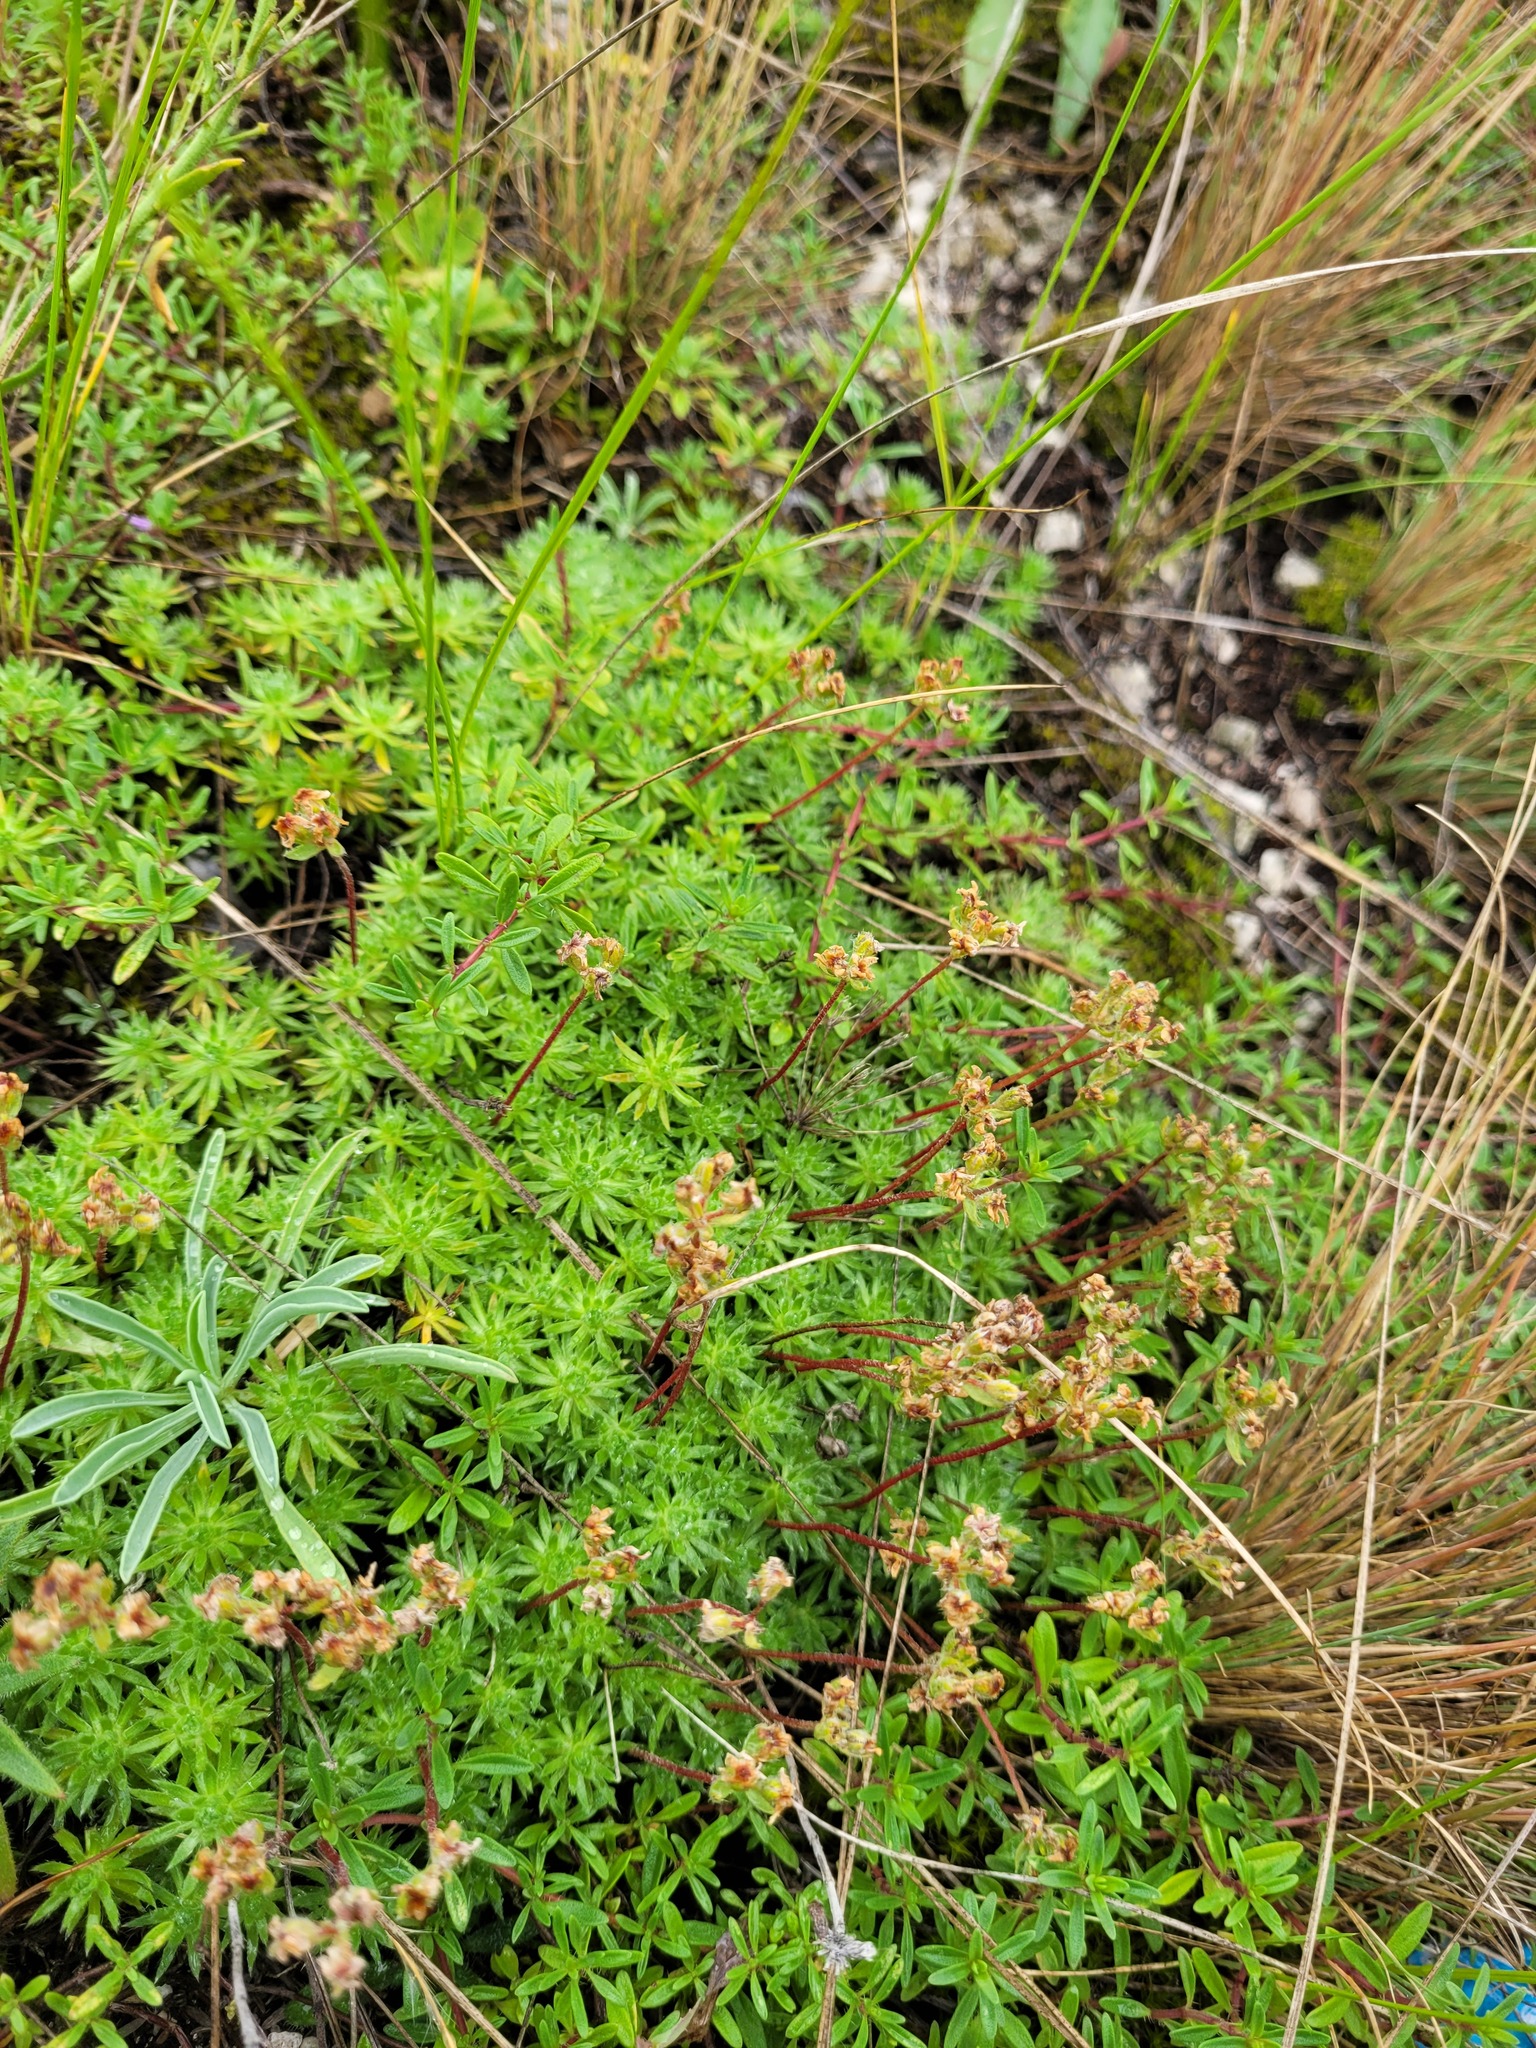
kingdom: Plantae
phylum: Tracheophyta
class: Magnoliopsida
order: Ericales
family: Primulaceae
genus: Androsace
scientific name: Androsace villosa
